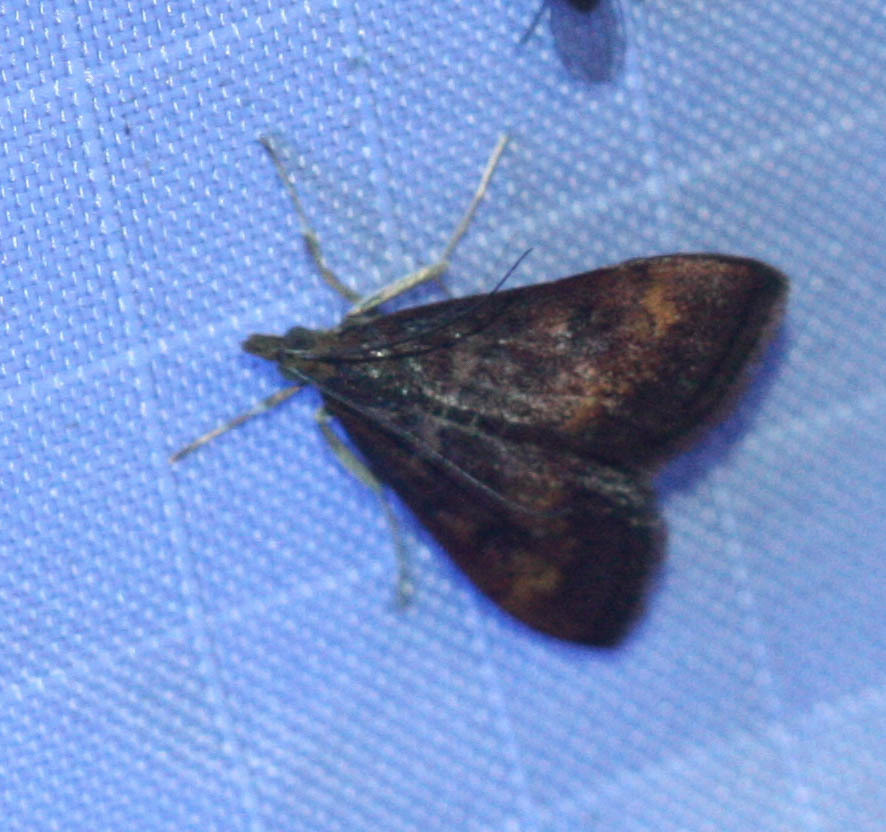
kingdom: Animalia
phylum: Arthropoda
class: Insecta
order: Lepidoptera
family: Crambidae
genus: Pyrausta
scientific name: Pyrausta californicalis
